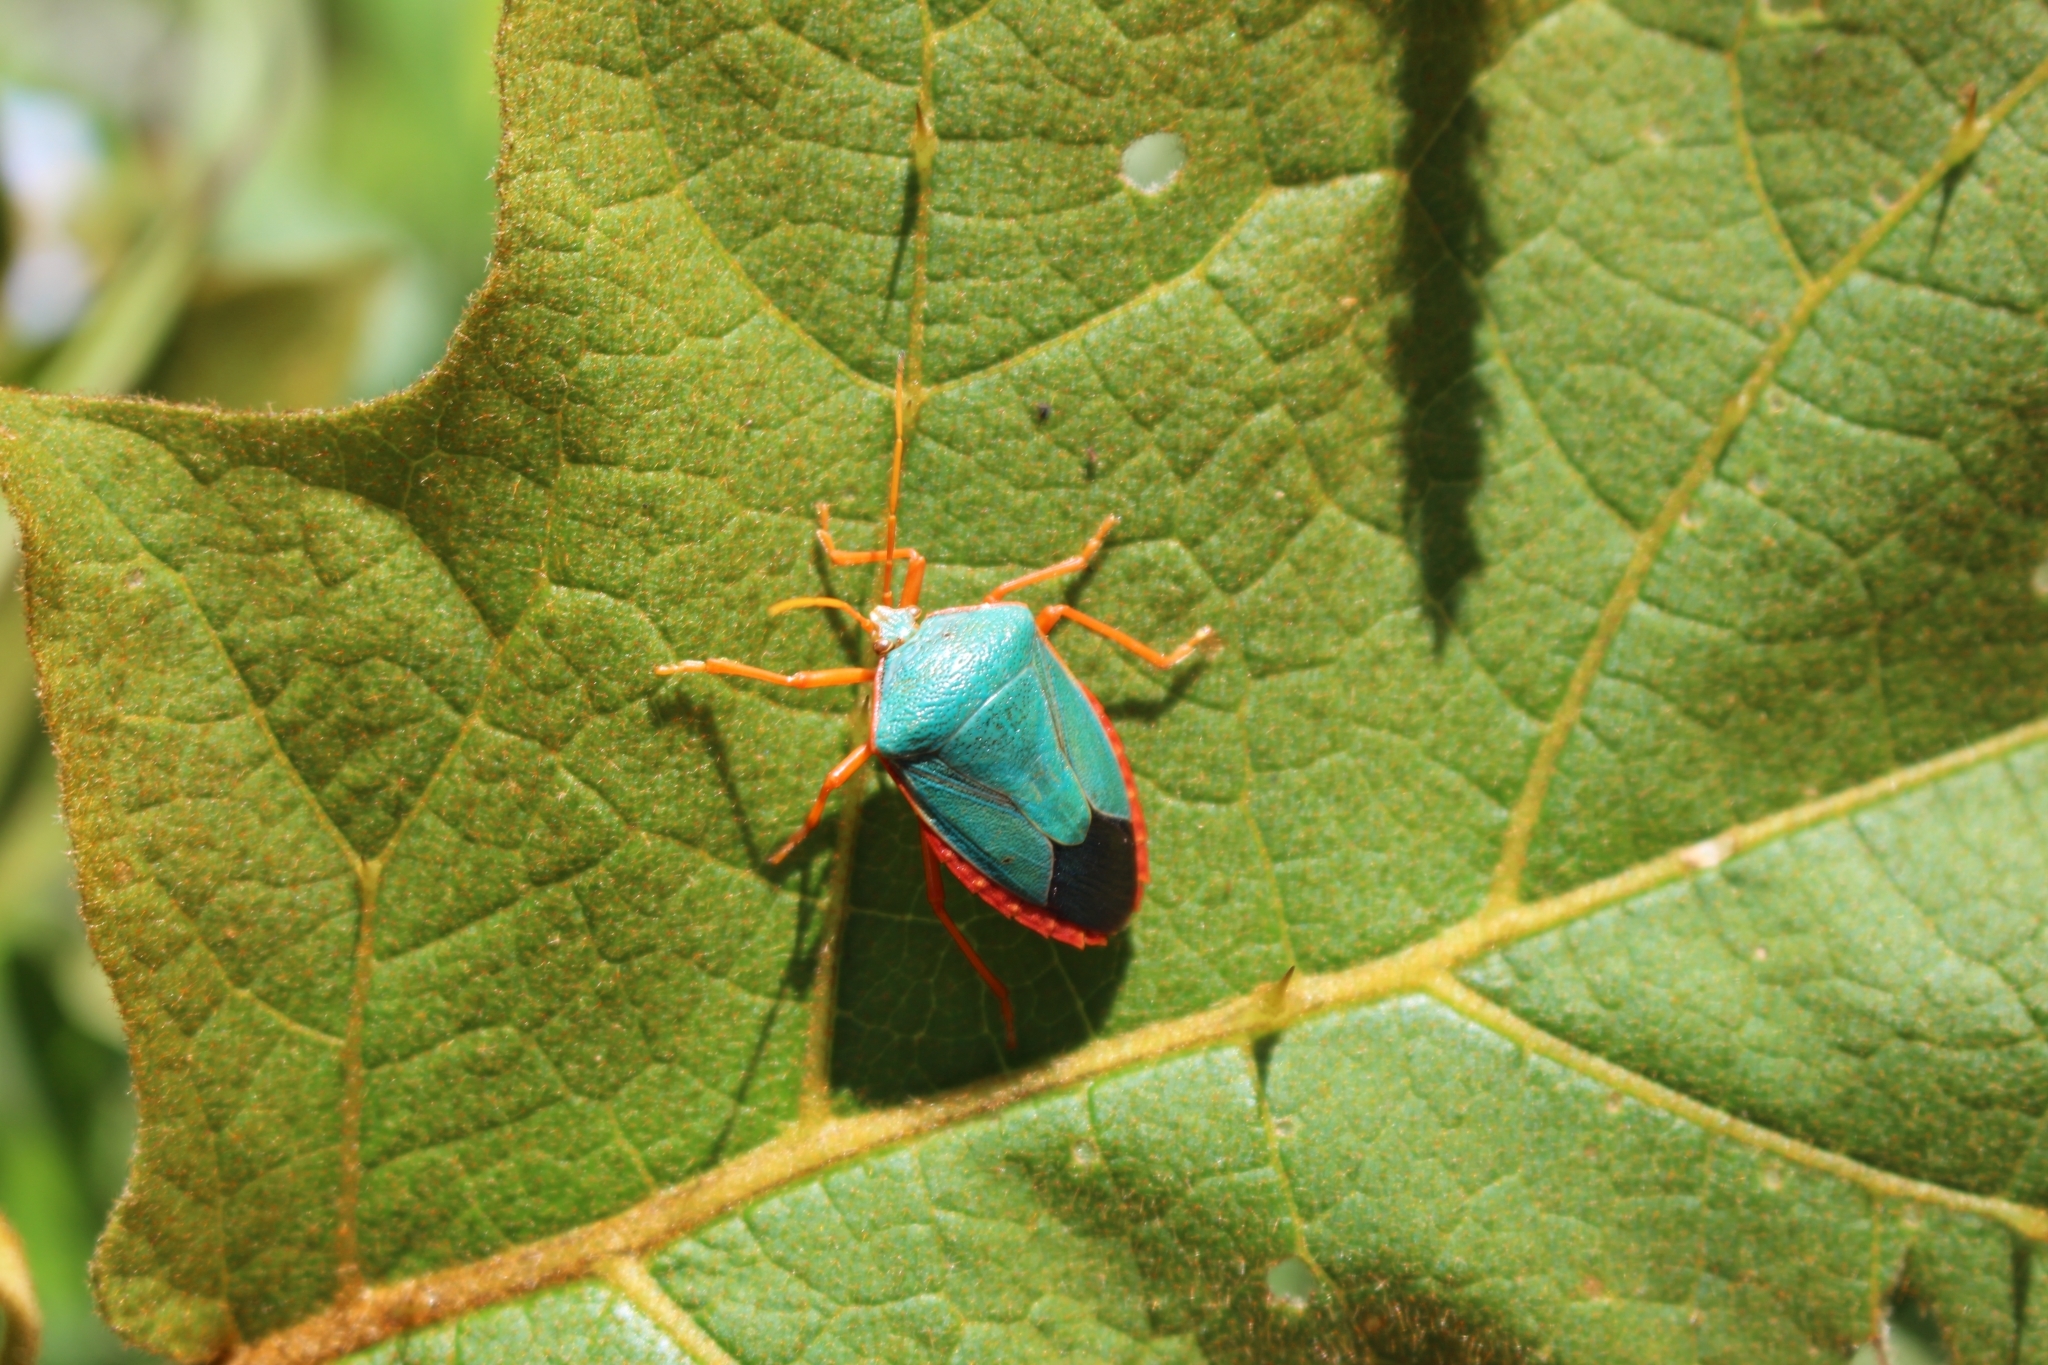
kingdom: Animalia
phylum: Arthropoda
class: Insecta
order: Hemiptera
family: Pentatomidae
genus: Edessa
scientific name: Edessa rufomarginata
